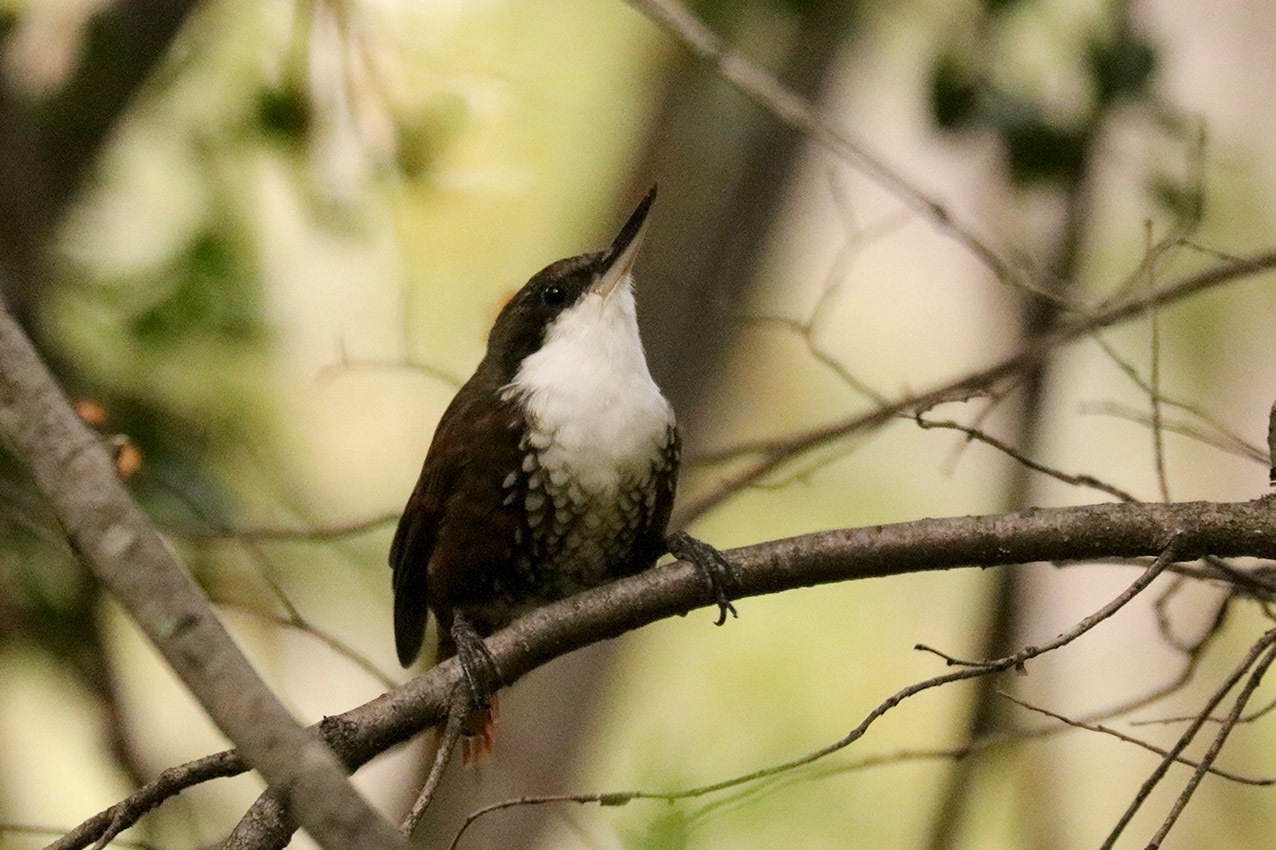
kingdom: Animalia
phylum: Chordata
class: Aves
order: Passeriformes
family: Furnariidae
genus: Pygarrhichas
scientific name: Pygarrhichas albogularis
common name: White-throated treerunner
